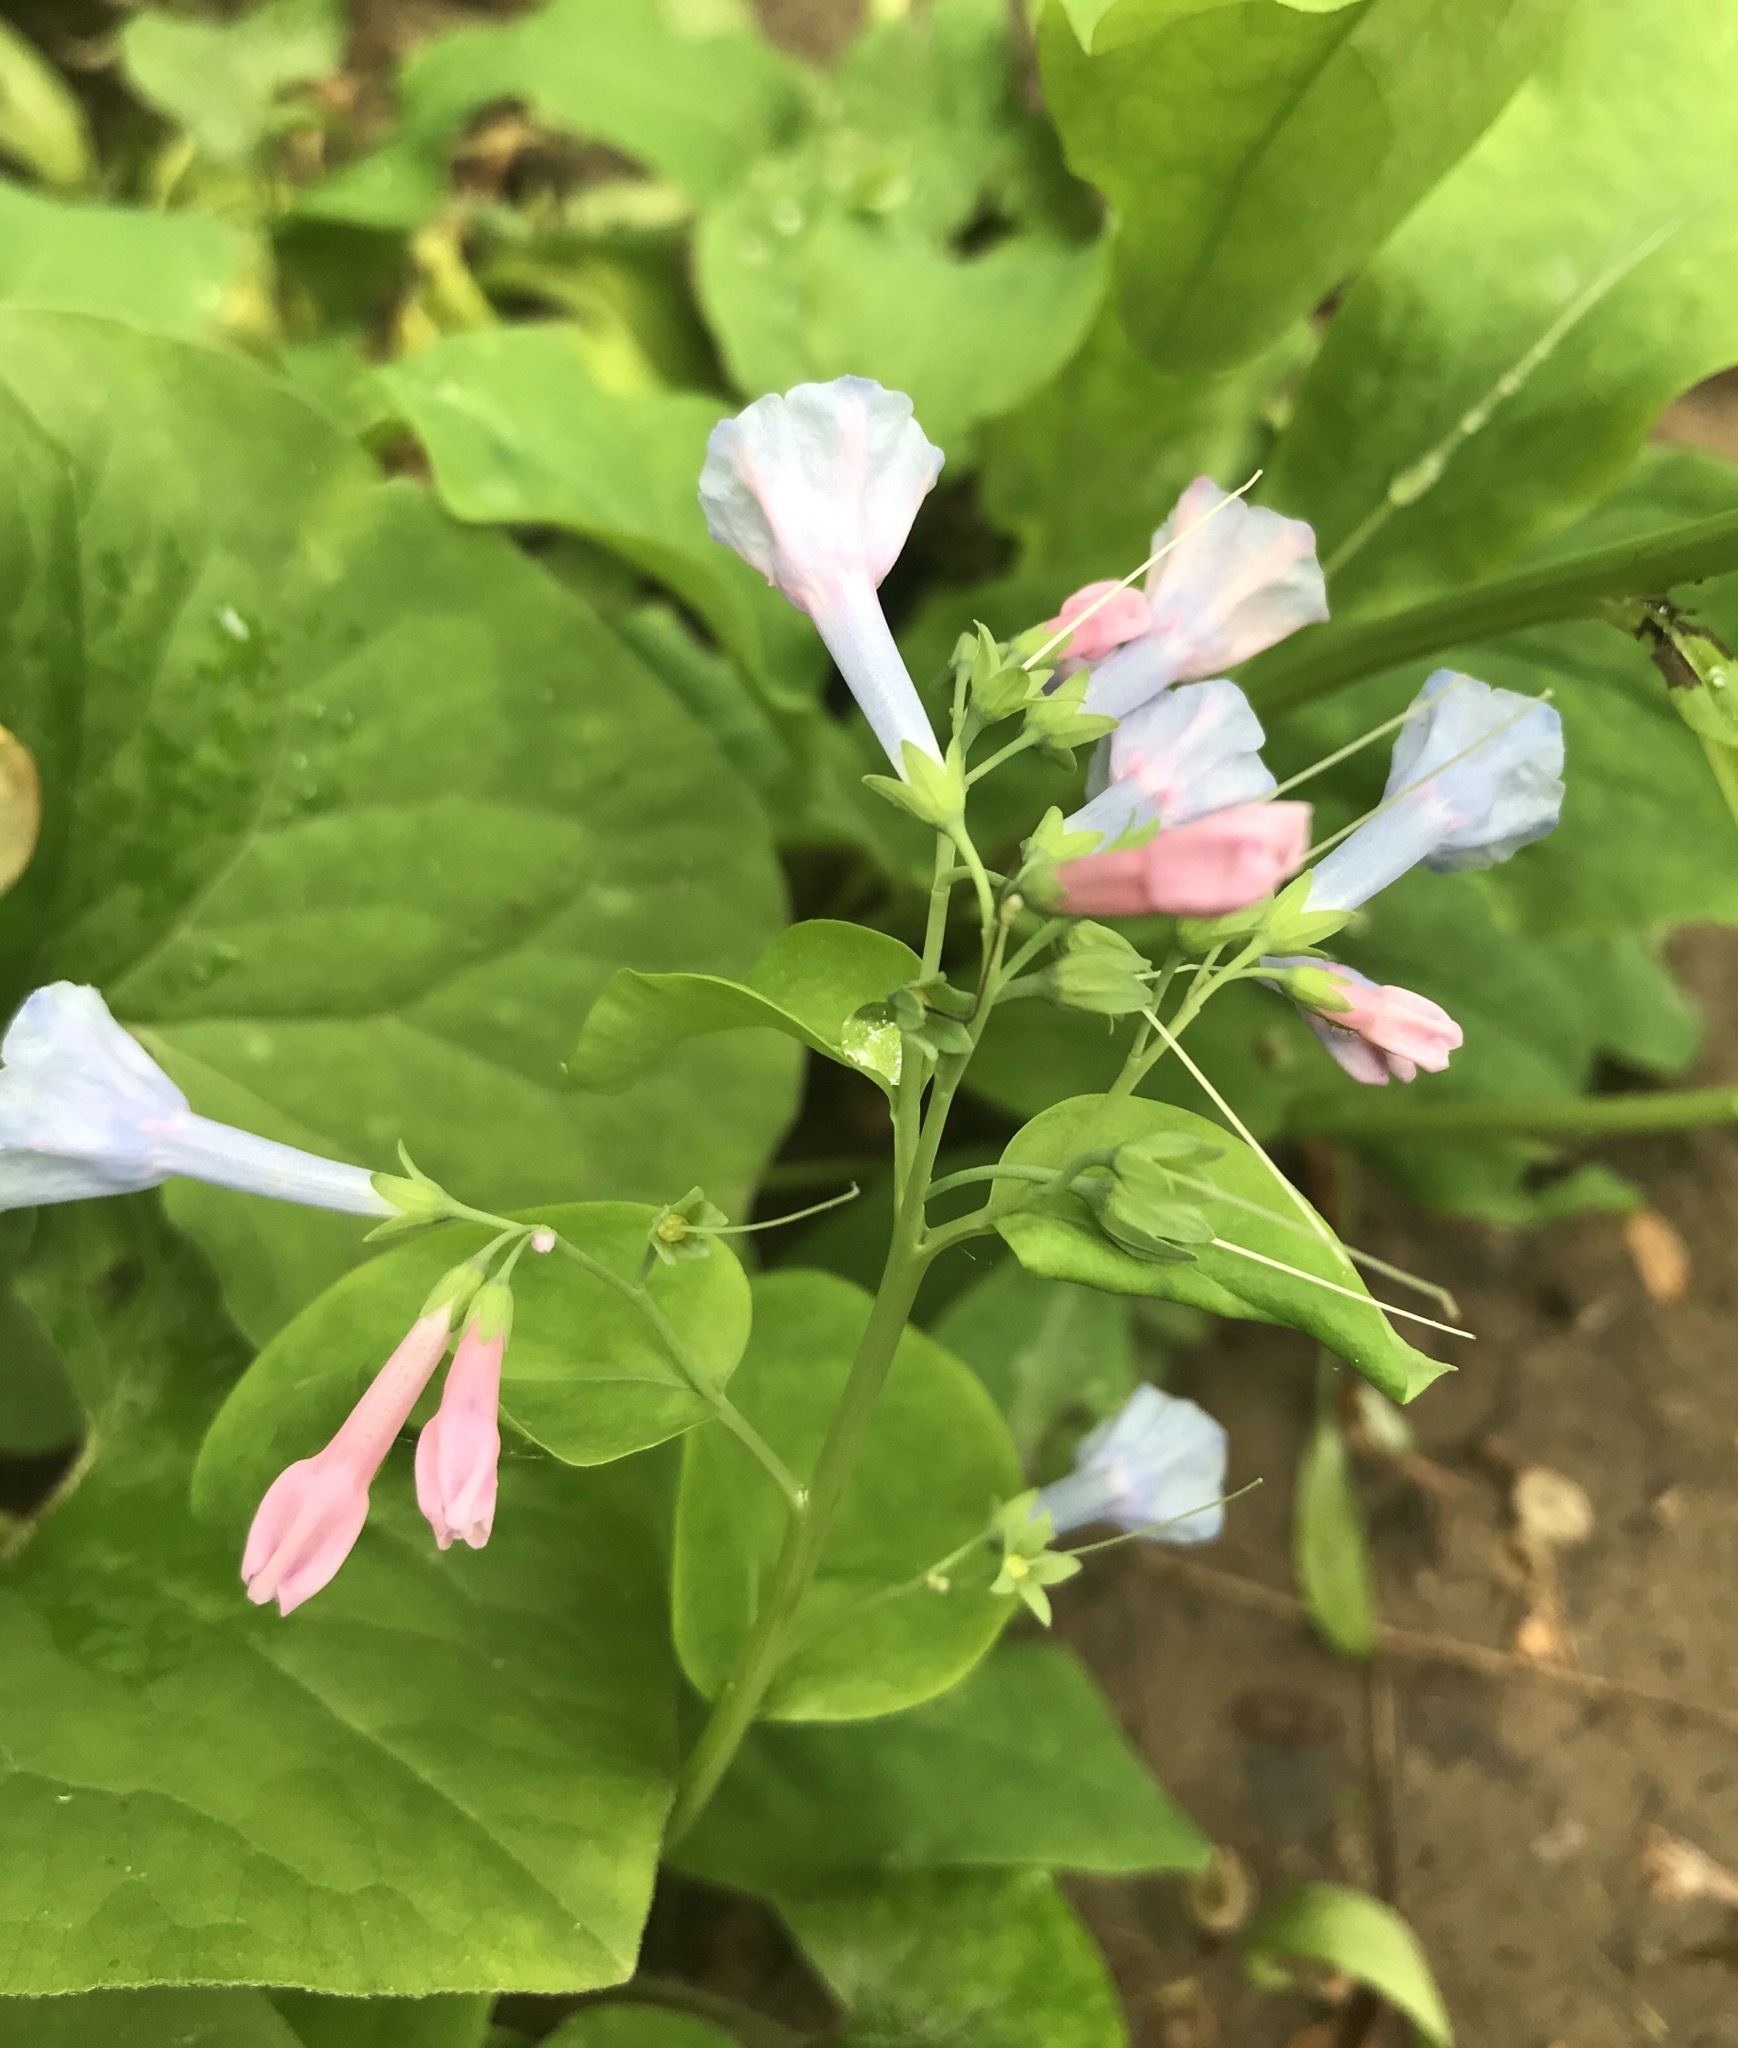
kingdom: Plantae
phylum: Tracheophyta
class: Magnoliopsida
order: Boraginales
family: Boraginaceae
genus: Mertensia
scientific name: Mertensia virginica
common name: Virginia bluebells
